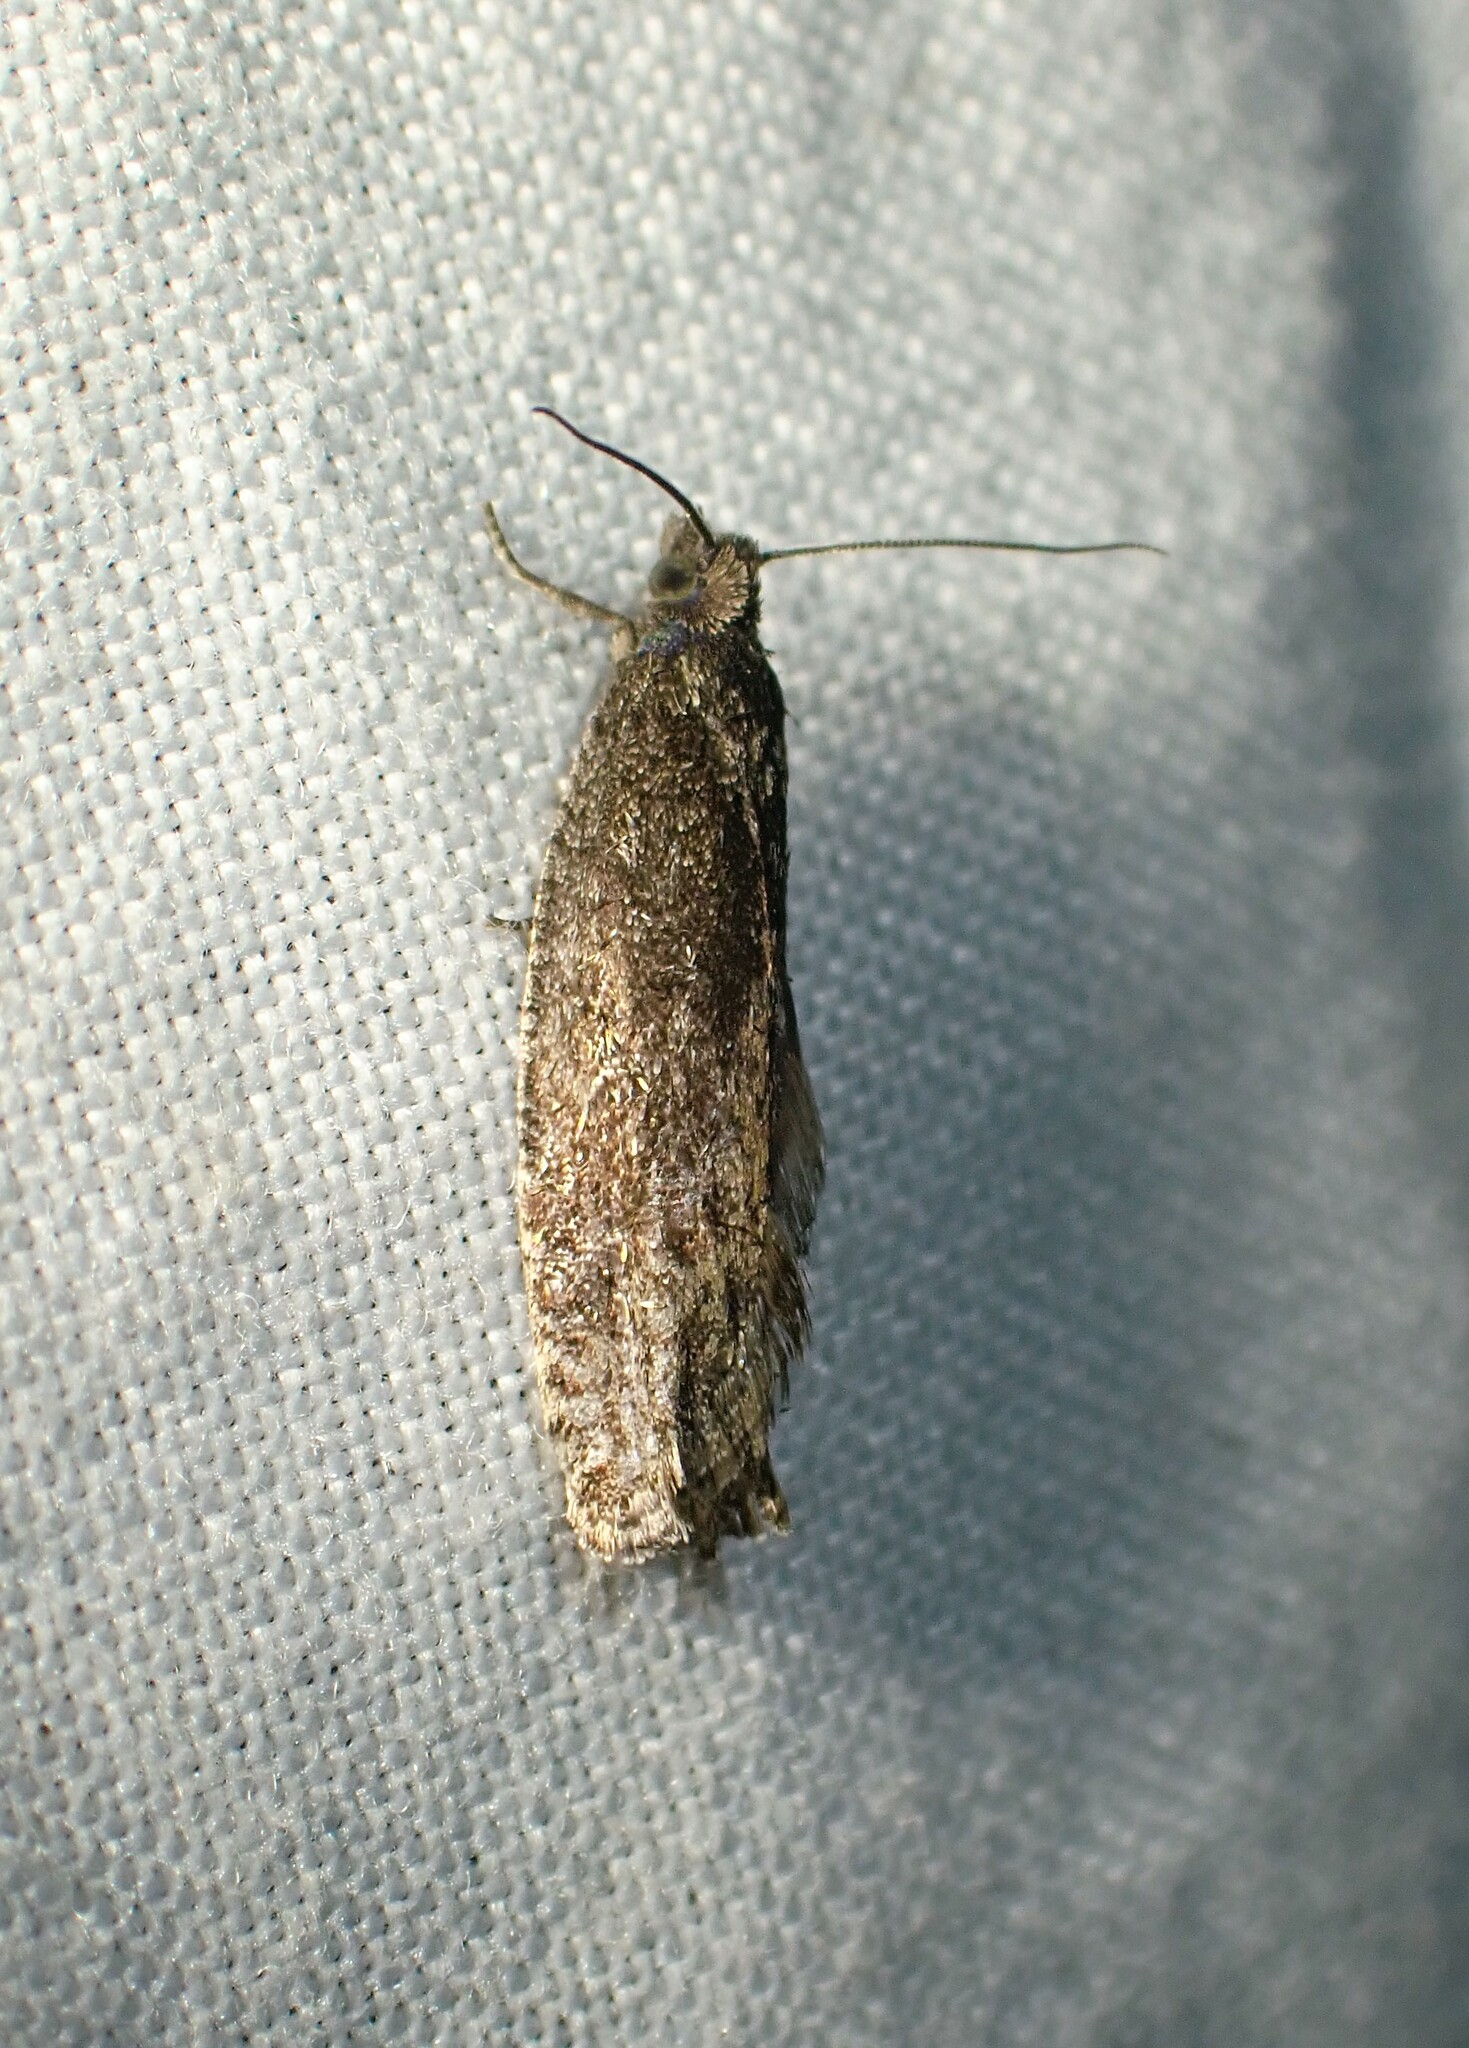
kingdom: Animalia
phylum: Arthropoda
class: Insecta
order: Lepidoptera
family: Tortricidae
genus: Pseudexentera
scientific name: Pseudexentera oregonana
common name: Early aspen leafcurler
